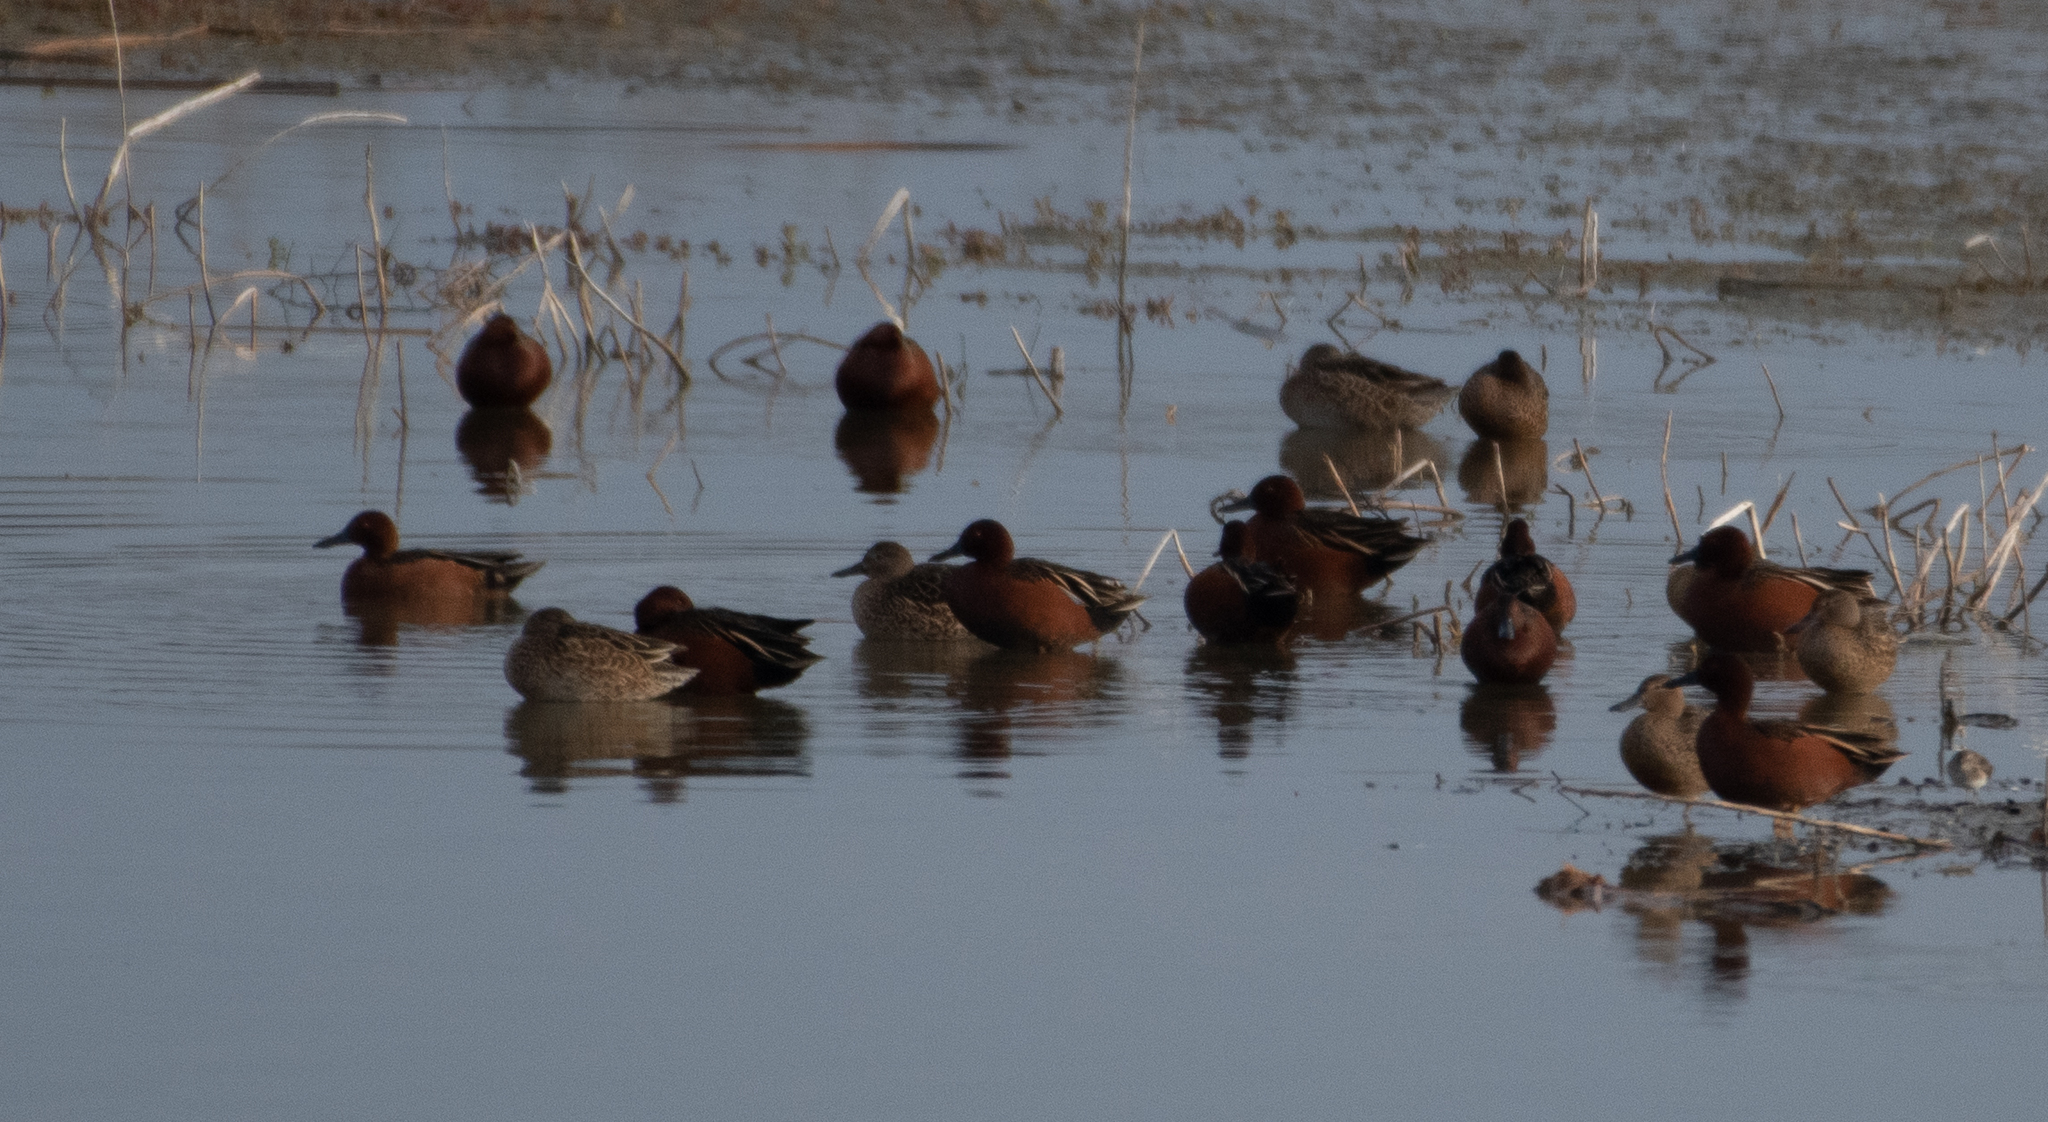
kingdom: Animalia
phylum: Chordata
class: Aves
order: Anseriformes
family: Anatidae
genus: Spatula
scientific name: Spatula cyanoptera
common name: Cinnamon teal
